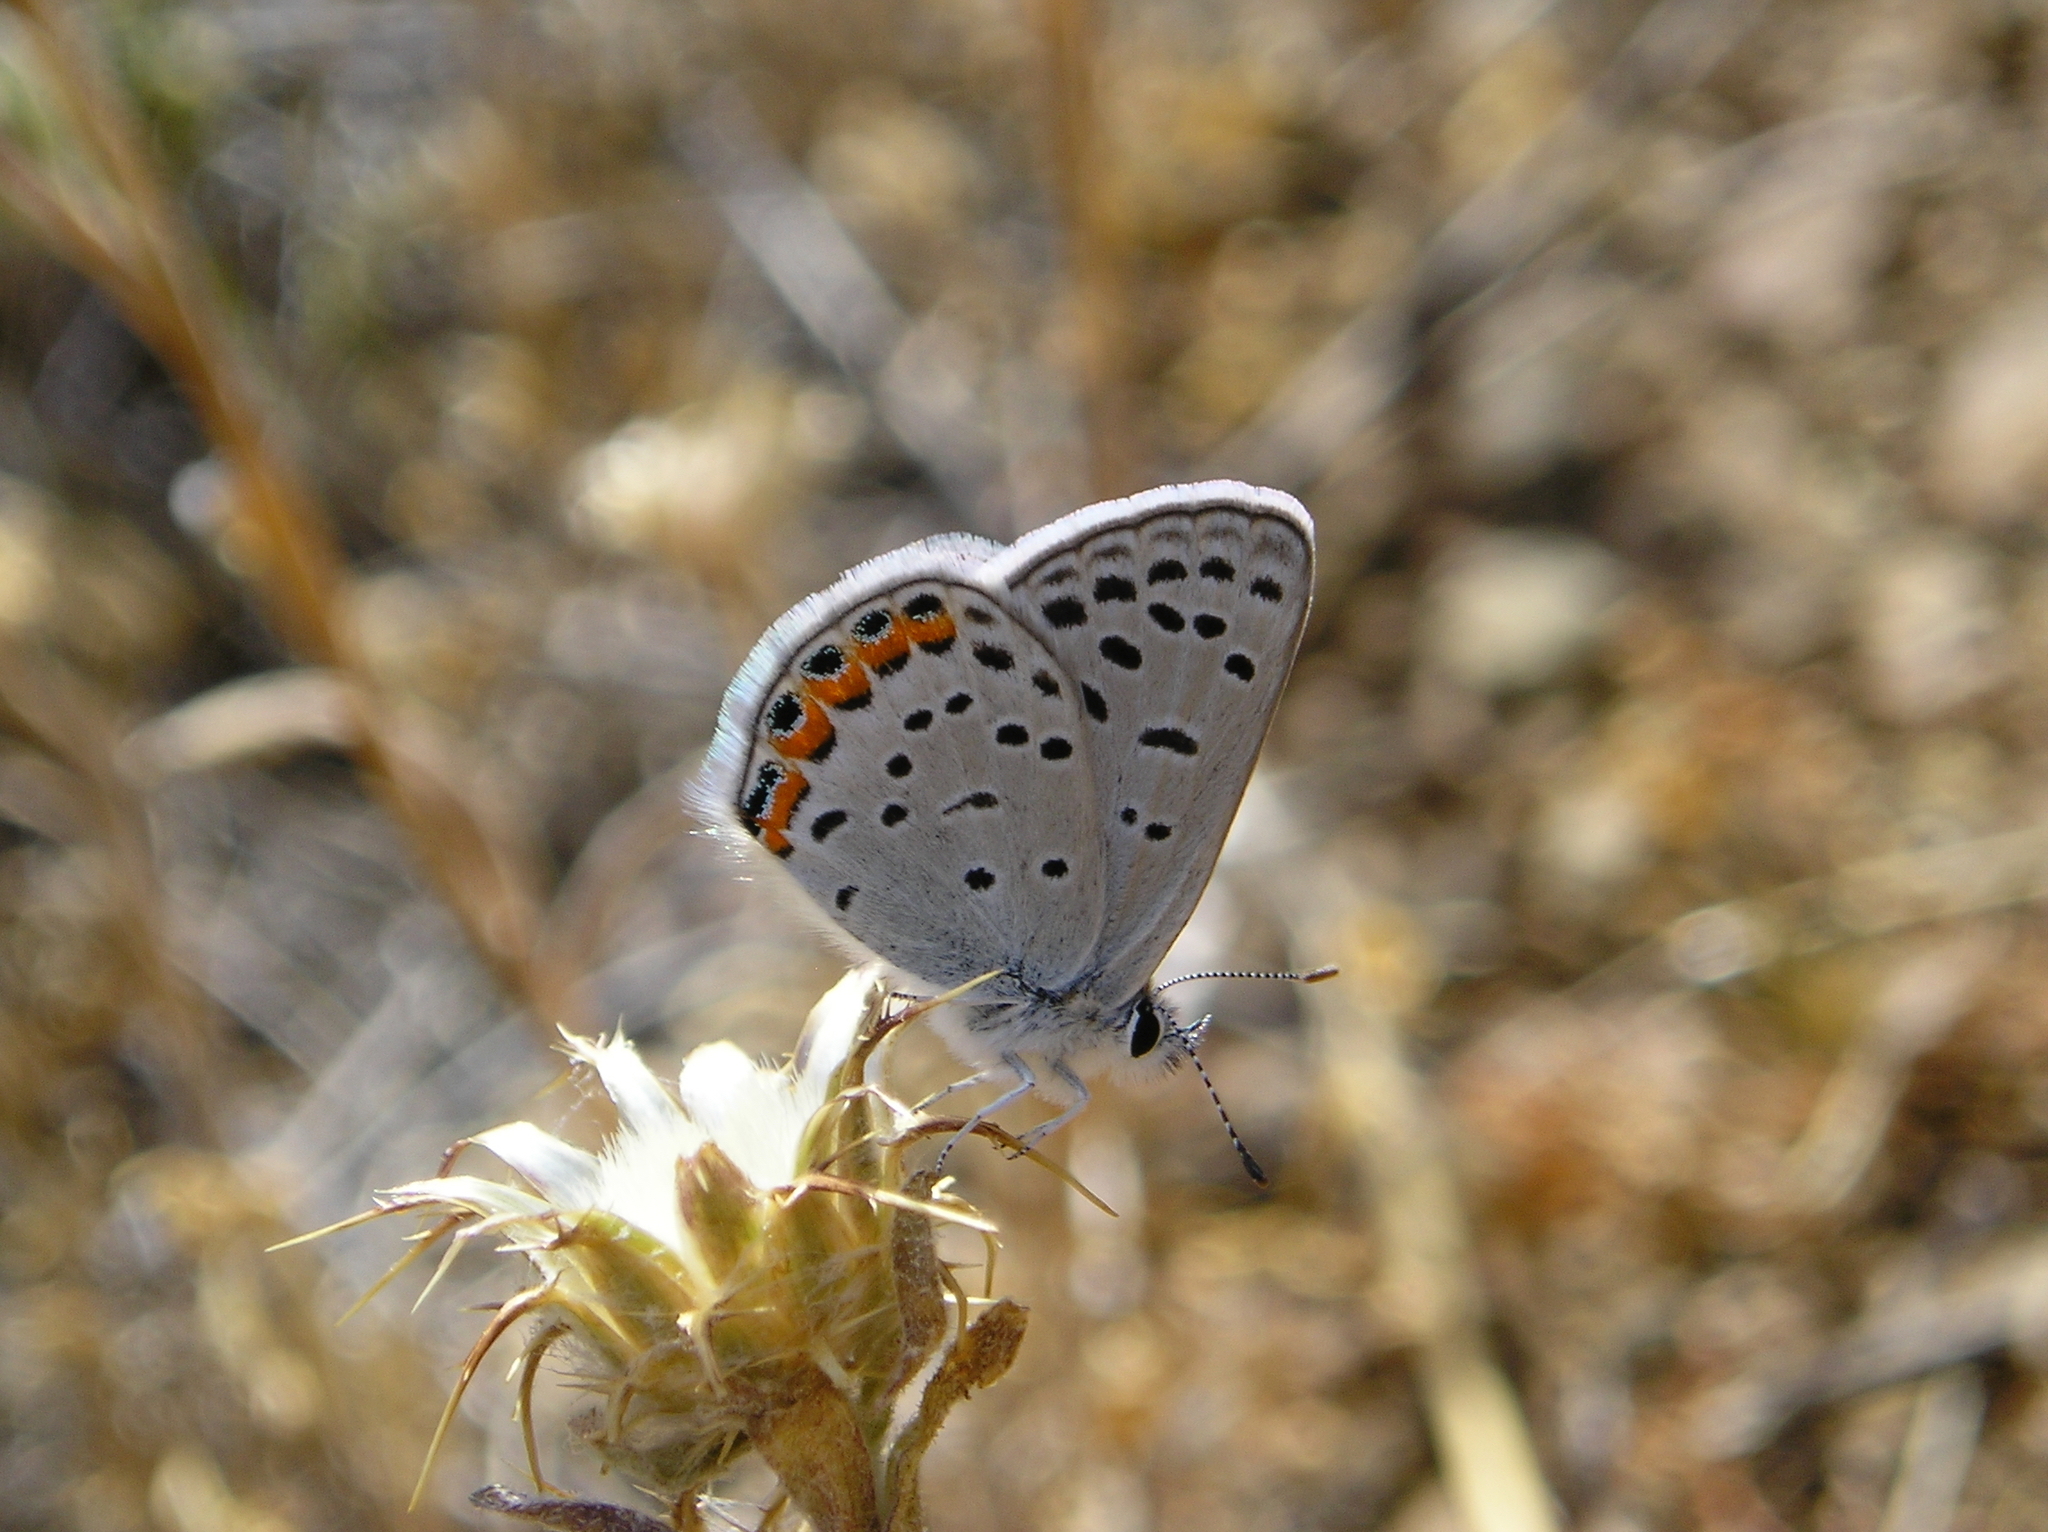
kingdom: Animalia
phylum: Arthropoda
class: Insecta
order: Lepidoptera
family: Lycaenidae
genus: Icaricia
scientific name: Icaricia acmon
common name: Acmon blue
